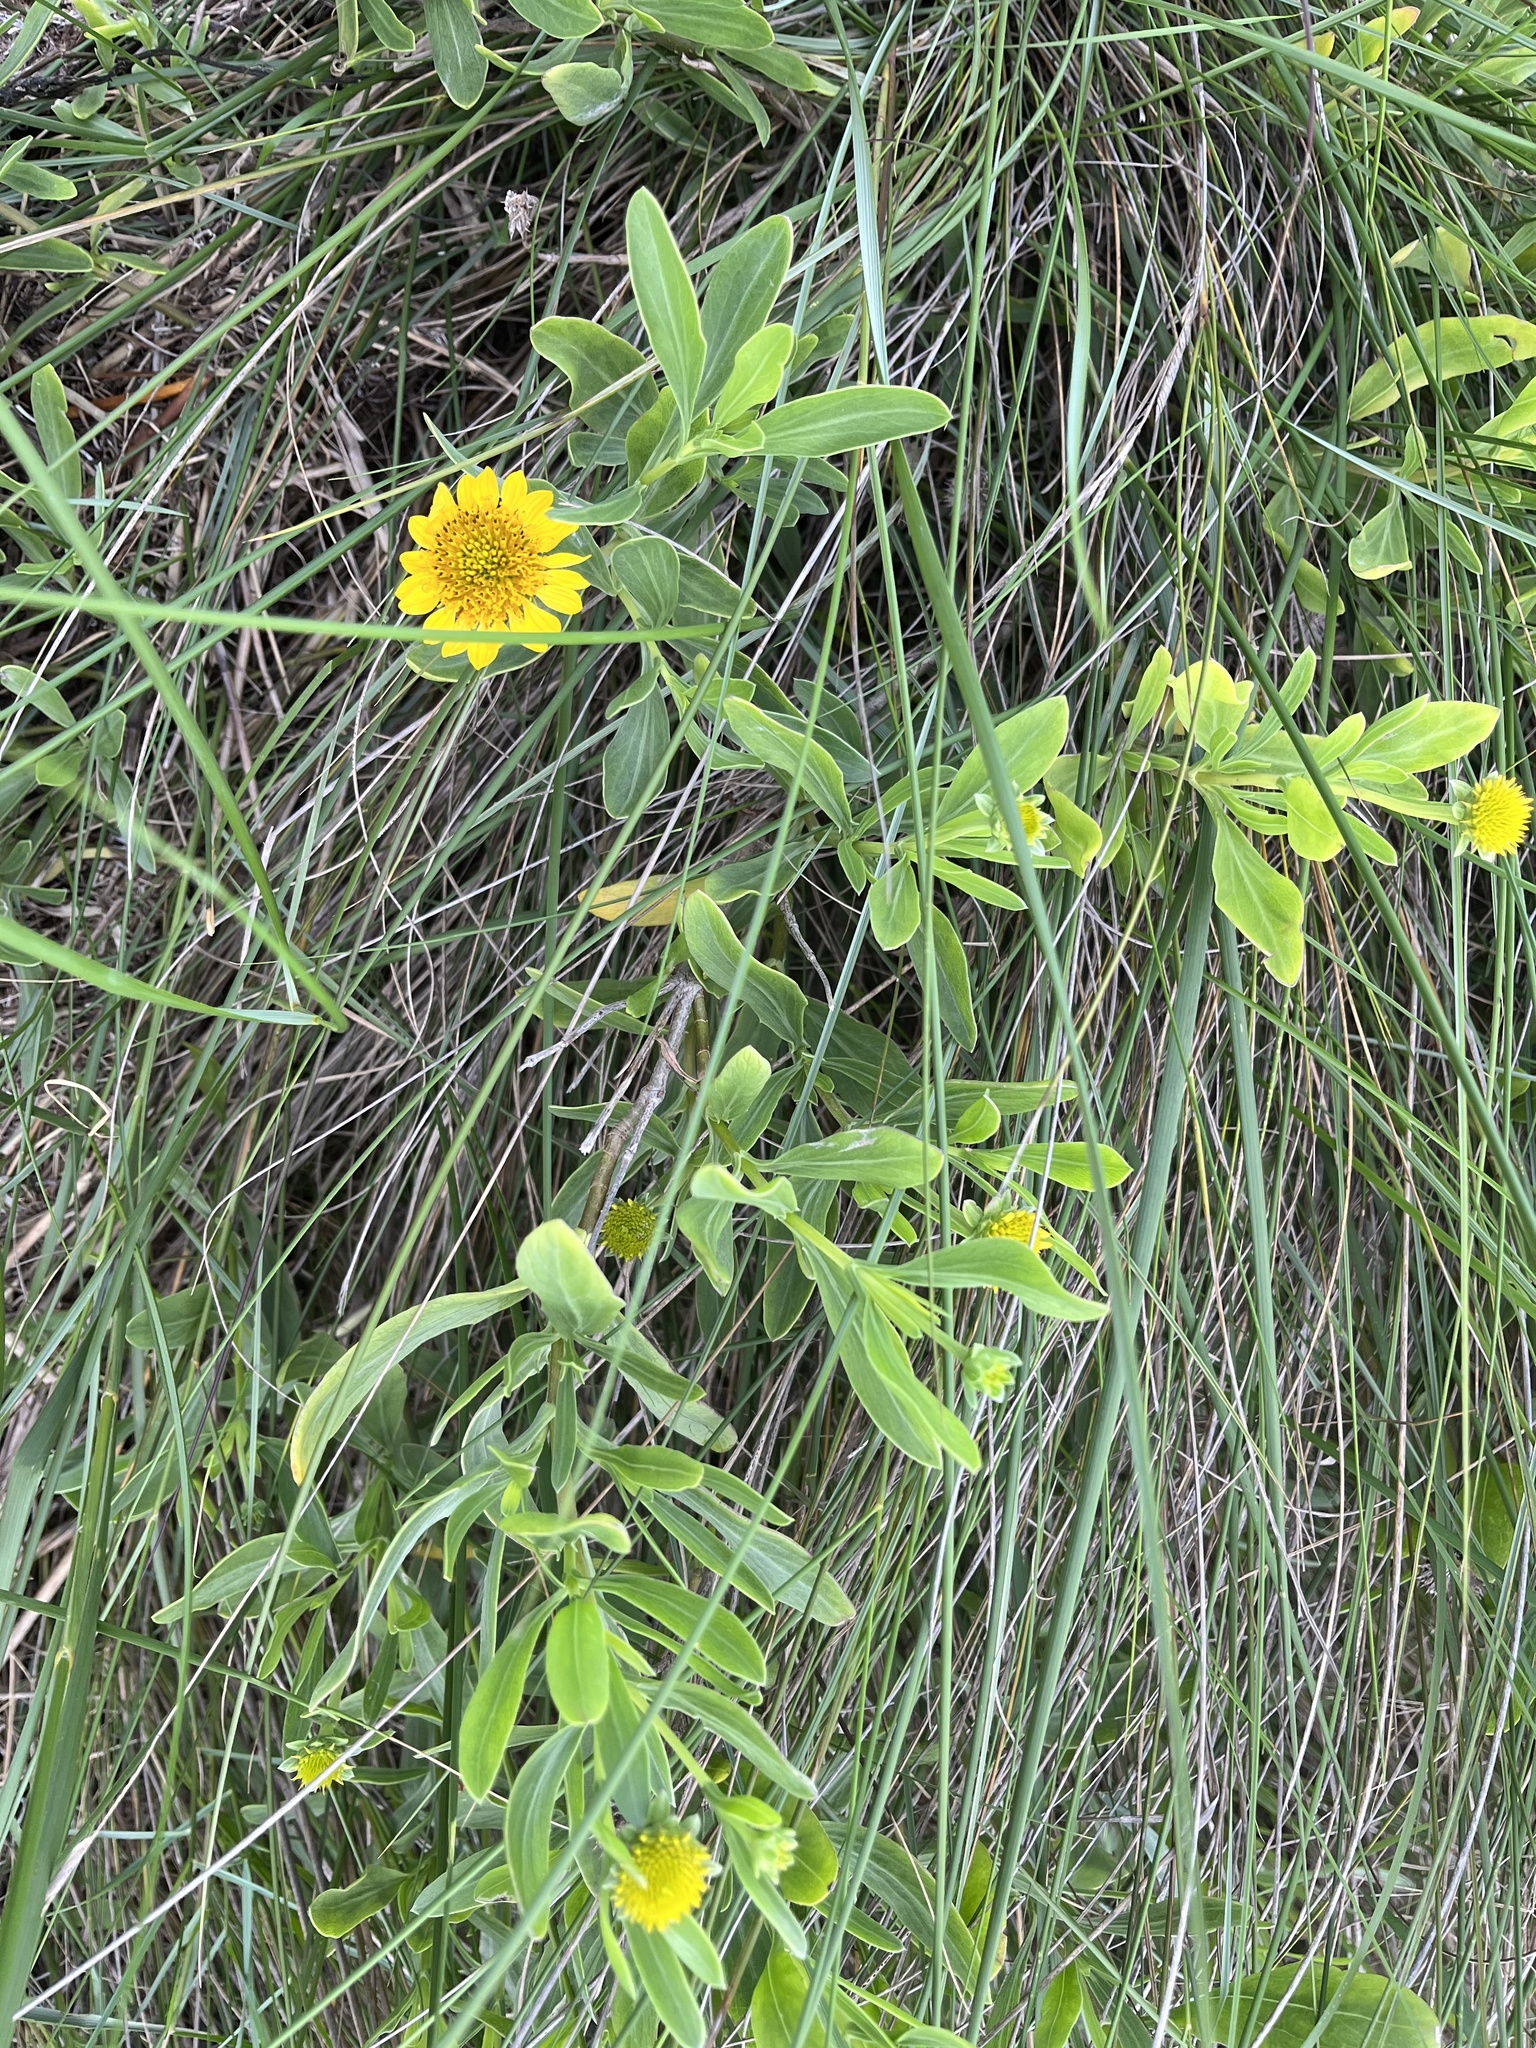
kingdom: Plantae
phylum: Tracheophyta
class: Magnoliopsida
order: Asterales
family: Asteraceae
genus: Borrichia
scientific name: Borrichia frutescens
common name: Sea oxeye
